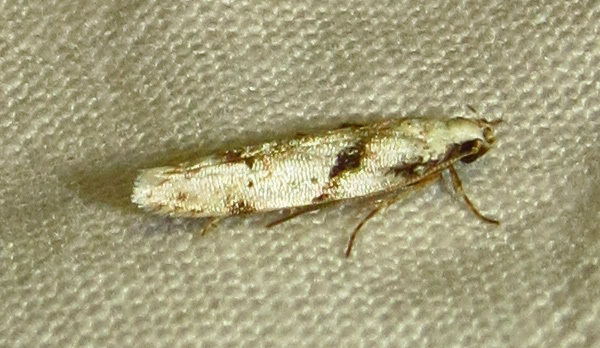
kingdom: Animalia
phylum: Arthropoda
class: Insecta
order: Lepidoptera
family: Gelechiidae
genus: Arogalea
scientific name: Arogalea cristifasciella
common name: White stripe-backed moth
